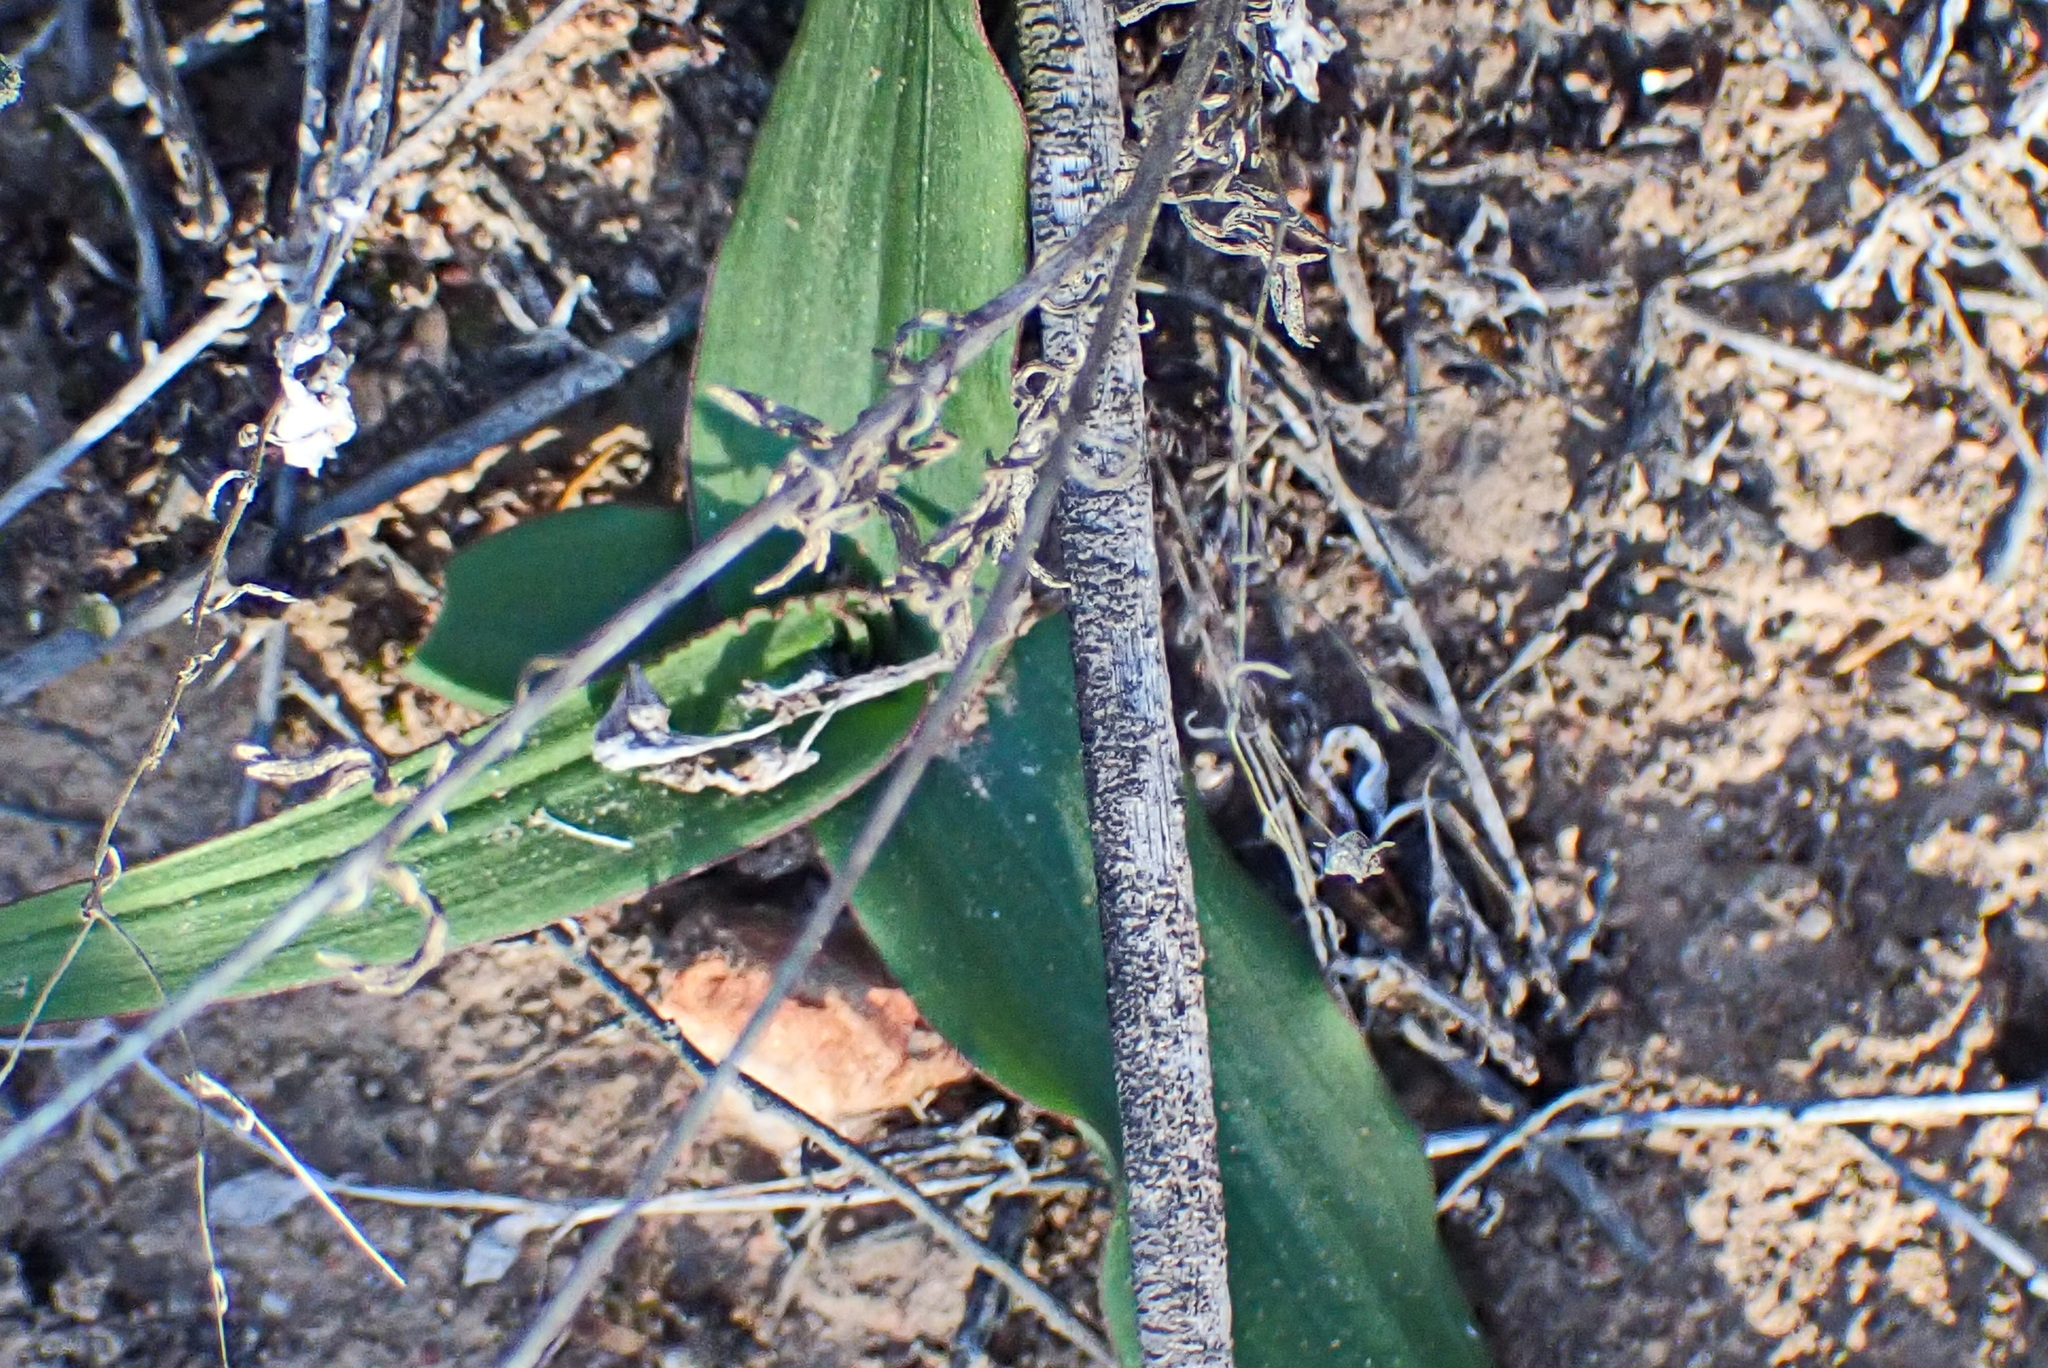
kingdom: Plantae
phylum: Tracheophyta
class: Liliopsida
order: Asparagales
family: Asparagaceae
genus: Drimia
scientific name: Drimia elata
